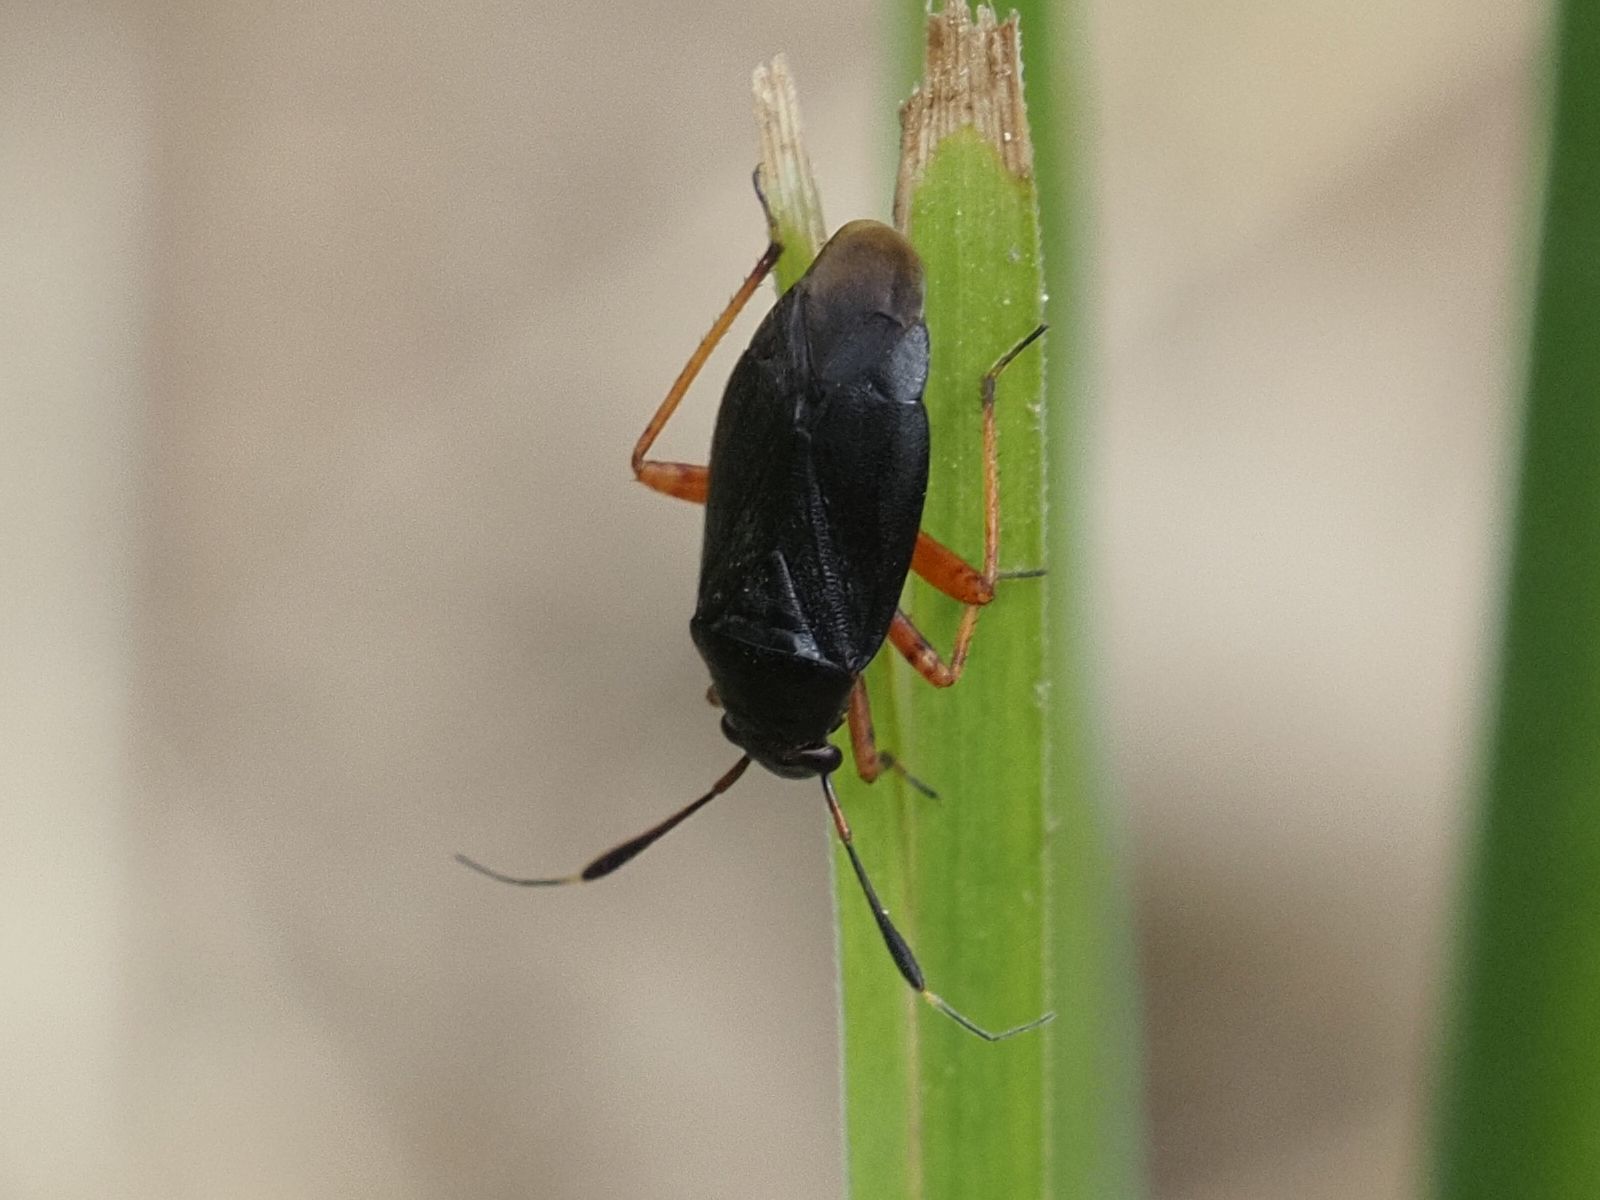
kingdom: Animalia
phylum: Arthropoda
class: Insecta
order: Hemiptera
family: Miridae
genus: Capsus
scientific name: Capsus ater
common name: Black plant bug
